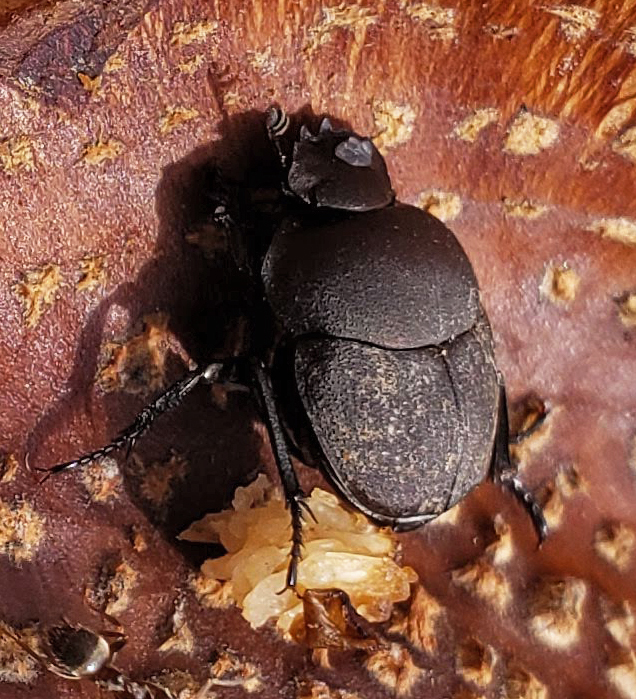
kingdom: Animalia
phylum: Arthropoda
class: Insecta
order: Coleoptera
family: Scarabaeidae
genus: Melanocanthon
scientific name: Melanocanthon nigricornis
